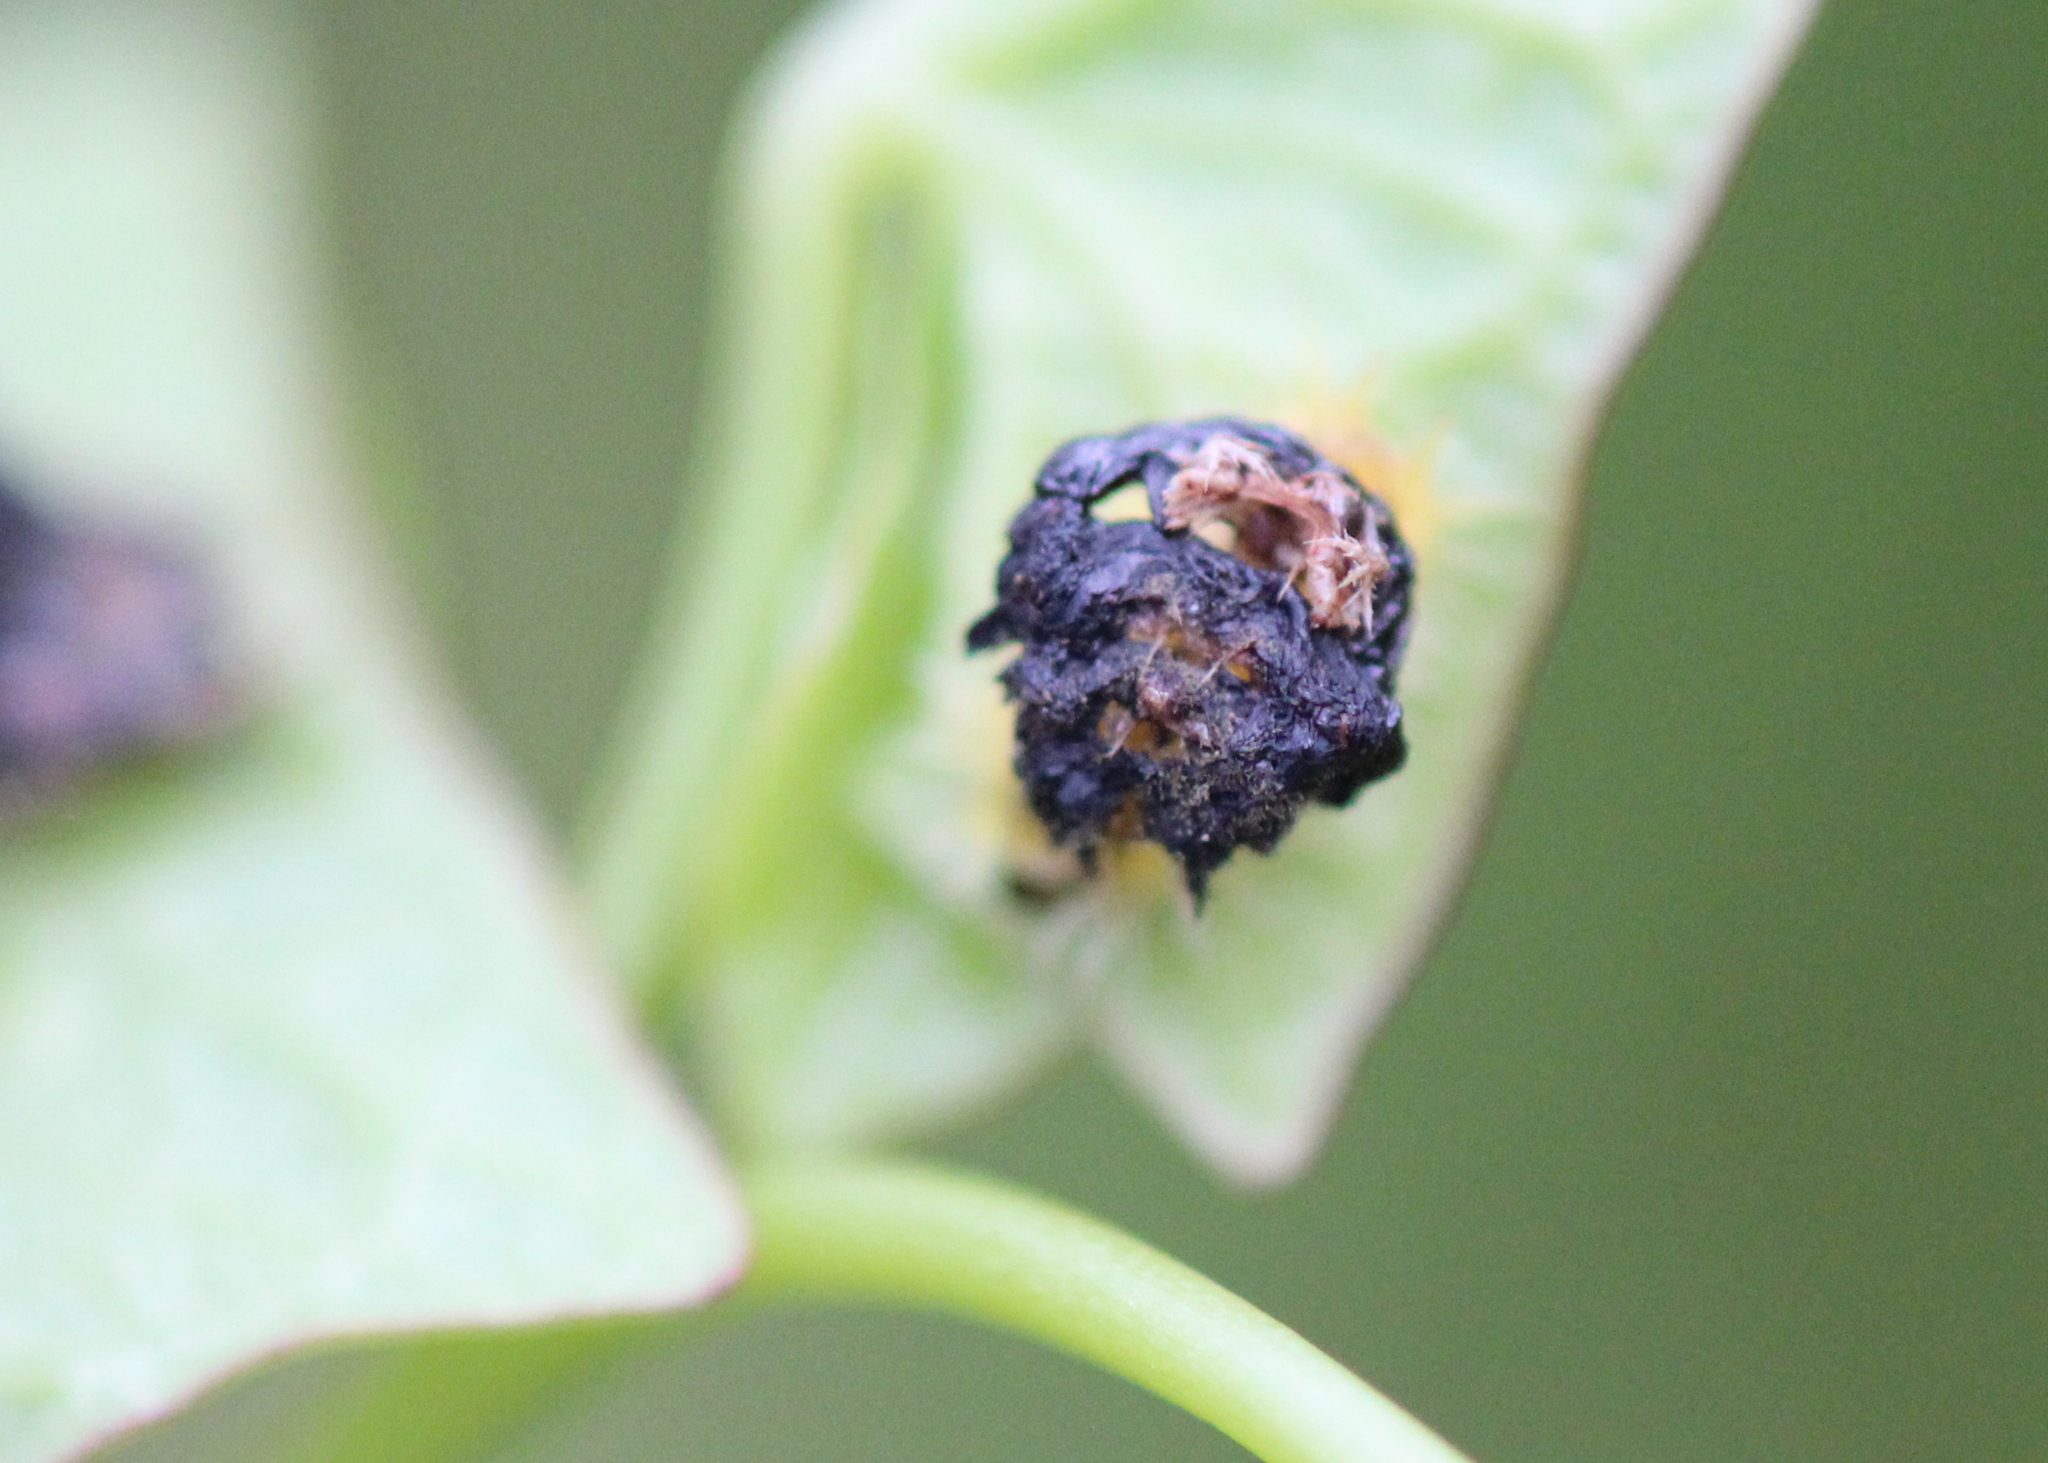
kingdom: Animalia
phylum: Arthropoda
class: Insecta
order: Coleoptera
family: Chrysomelidae
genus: Charidotella
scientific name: Charidotella sexpunctata
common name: Golden tortoise beetle
